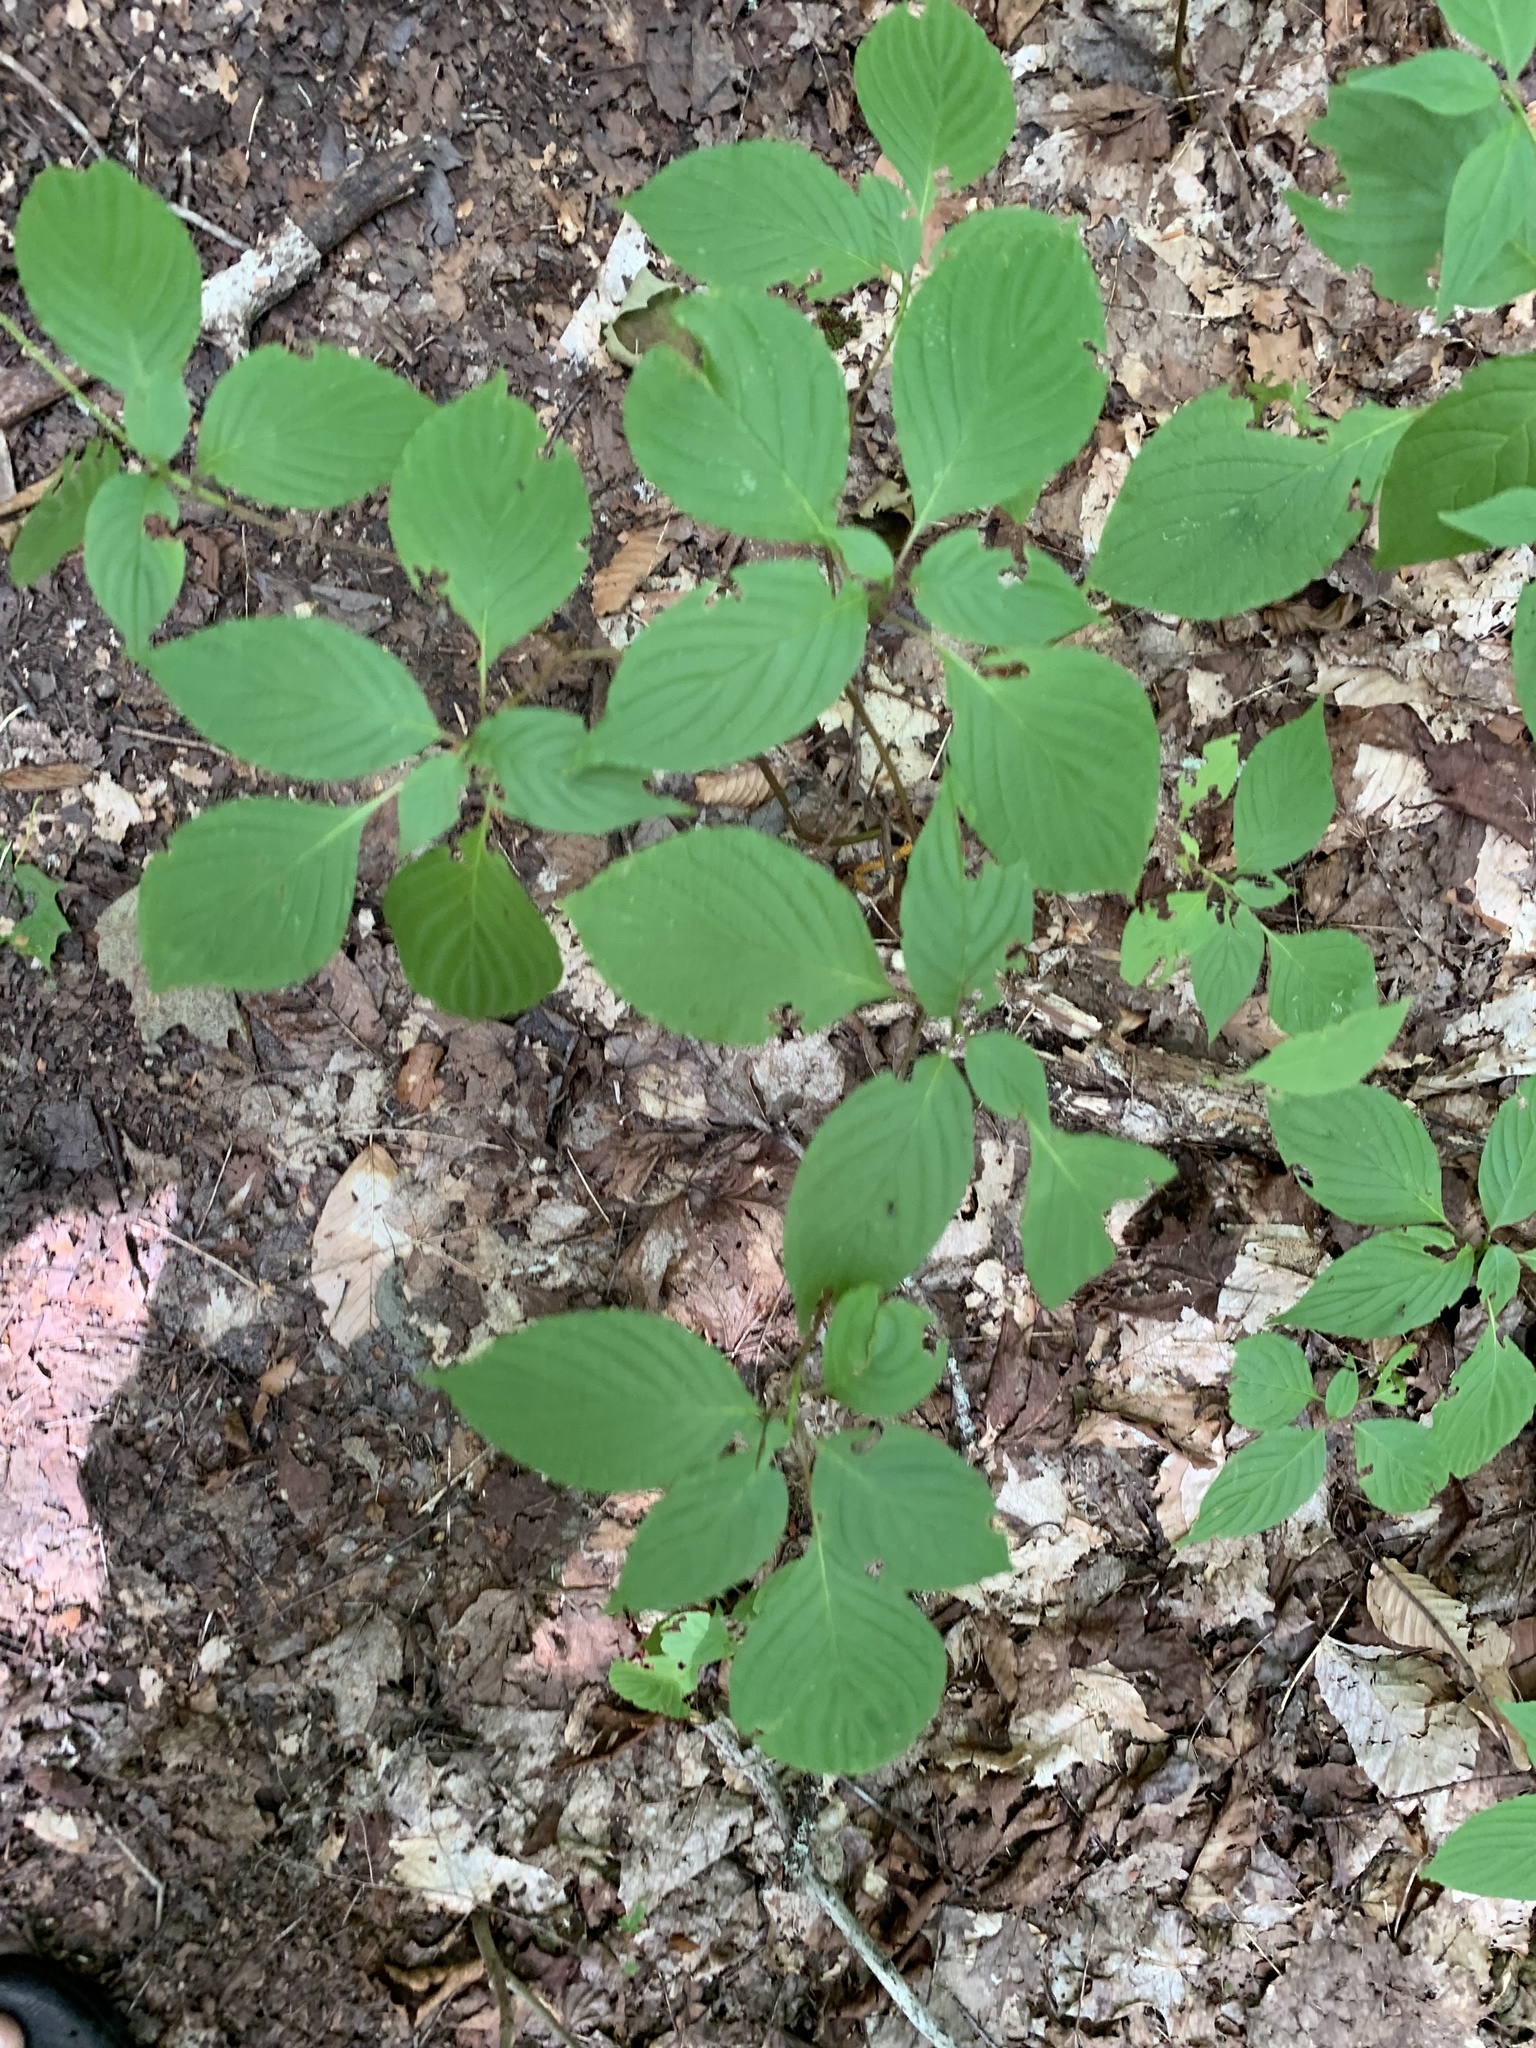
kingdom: Plantae
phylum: Tracheophyta
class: Magnoliopsida
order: Cornales
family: Cornaceae
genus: Cornus
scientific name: Cornus alternifolia
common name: Pagoda dogwood
